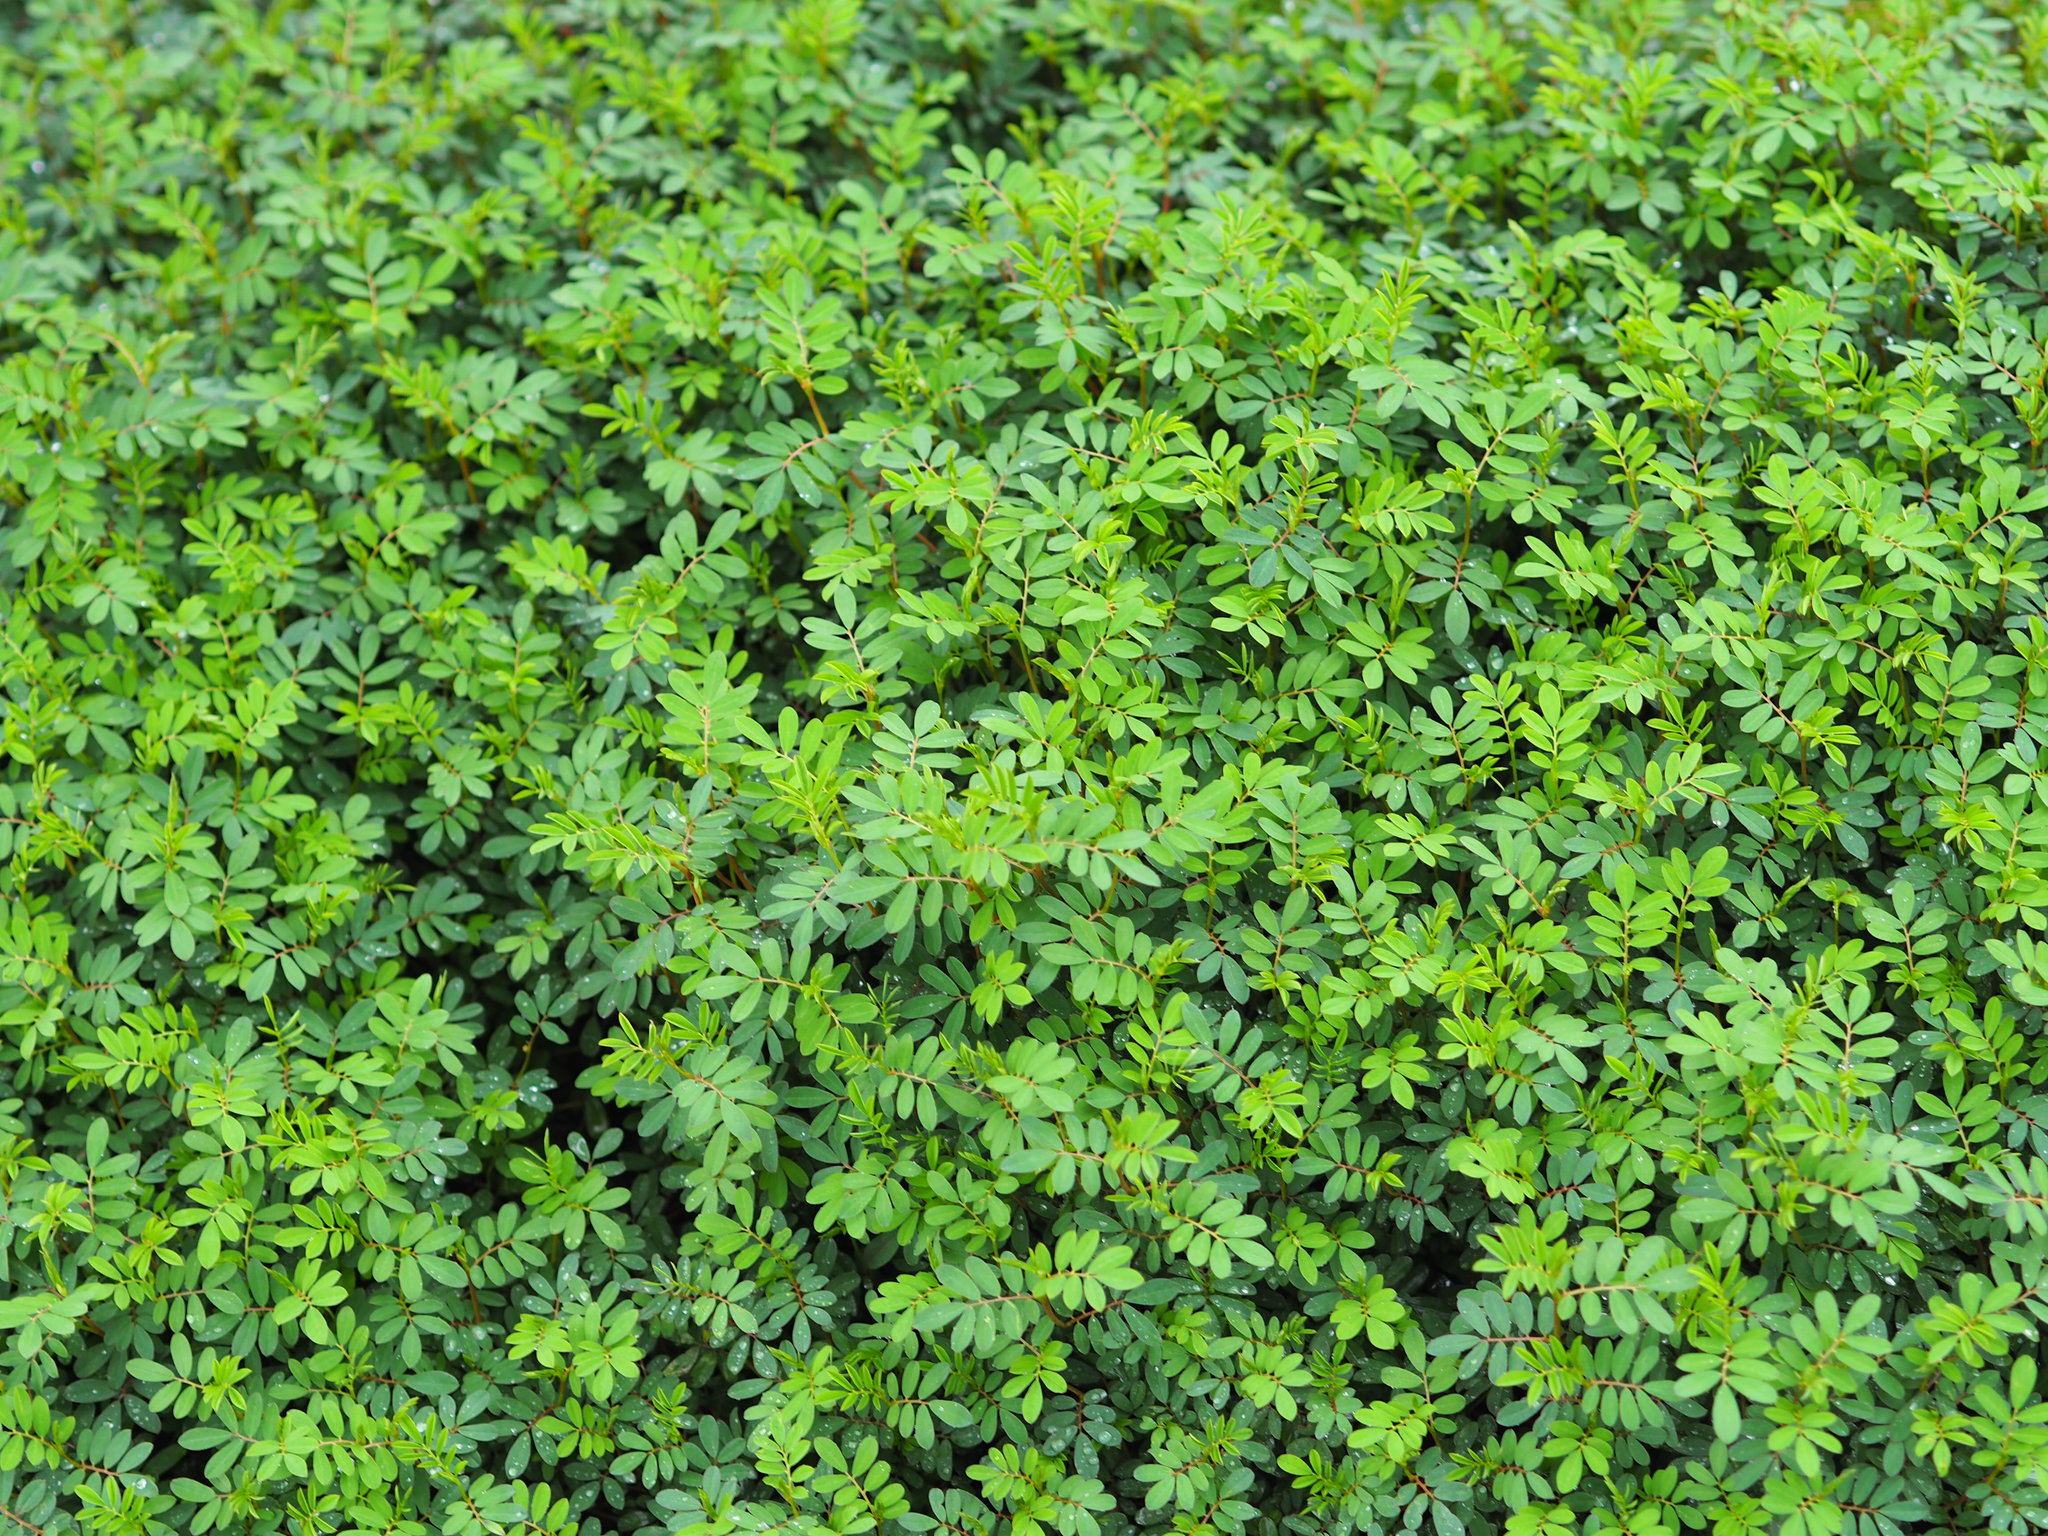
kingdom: Plantae
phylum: Tracheophyta
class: Magnoliopsida
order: Fabales
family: Fabaceae
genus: Indigofera
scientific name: Indigofera spicata
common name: Creeping indigo
